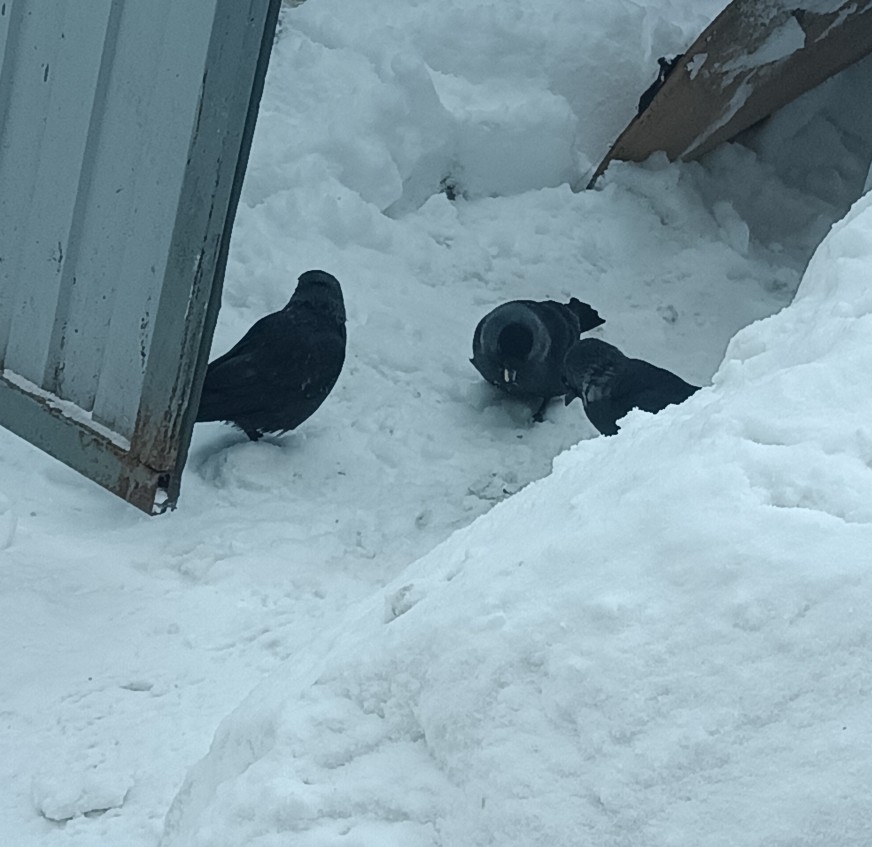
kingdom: Animalia
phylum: Chordata
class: Aves
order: Passeriformes
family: Corvidae
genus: Coloeus
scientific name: Coloeus monedula
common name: Western jackdaw
